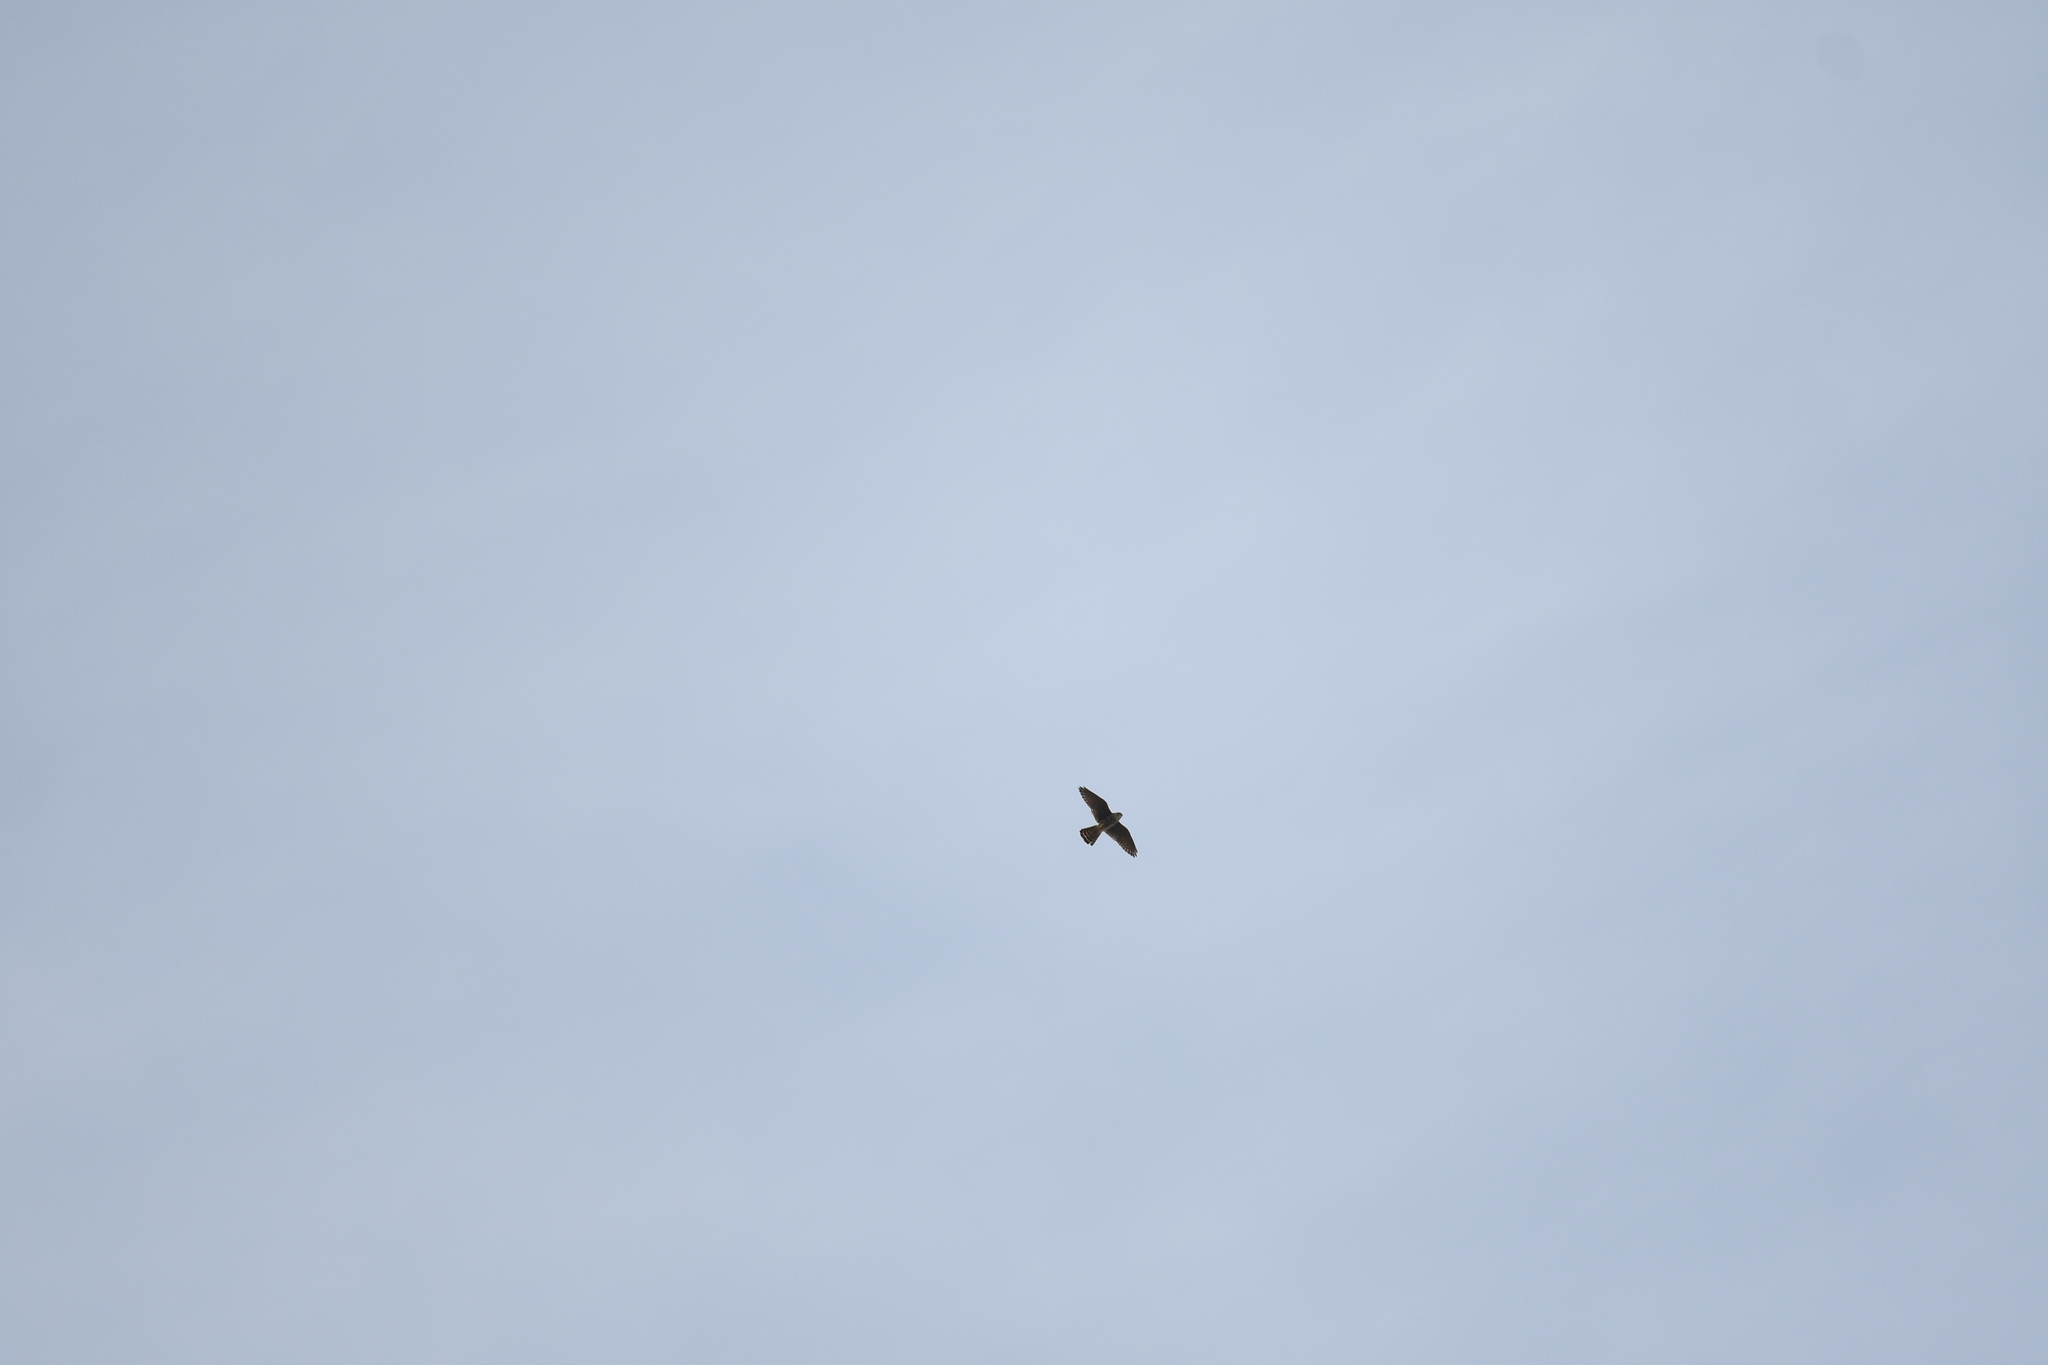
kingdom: Animalia
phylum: Chordata
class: Aves
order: Falconiformes
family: Falconidae
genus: Falco
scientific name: Falco columbarius
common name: Merlin
